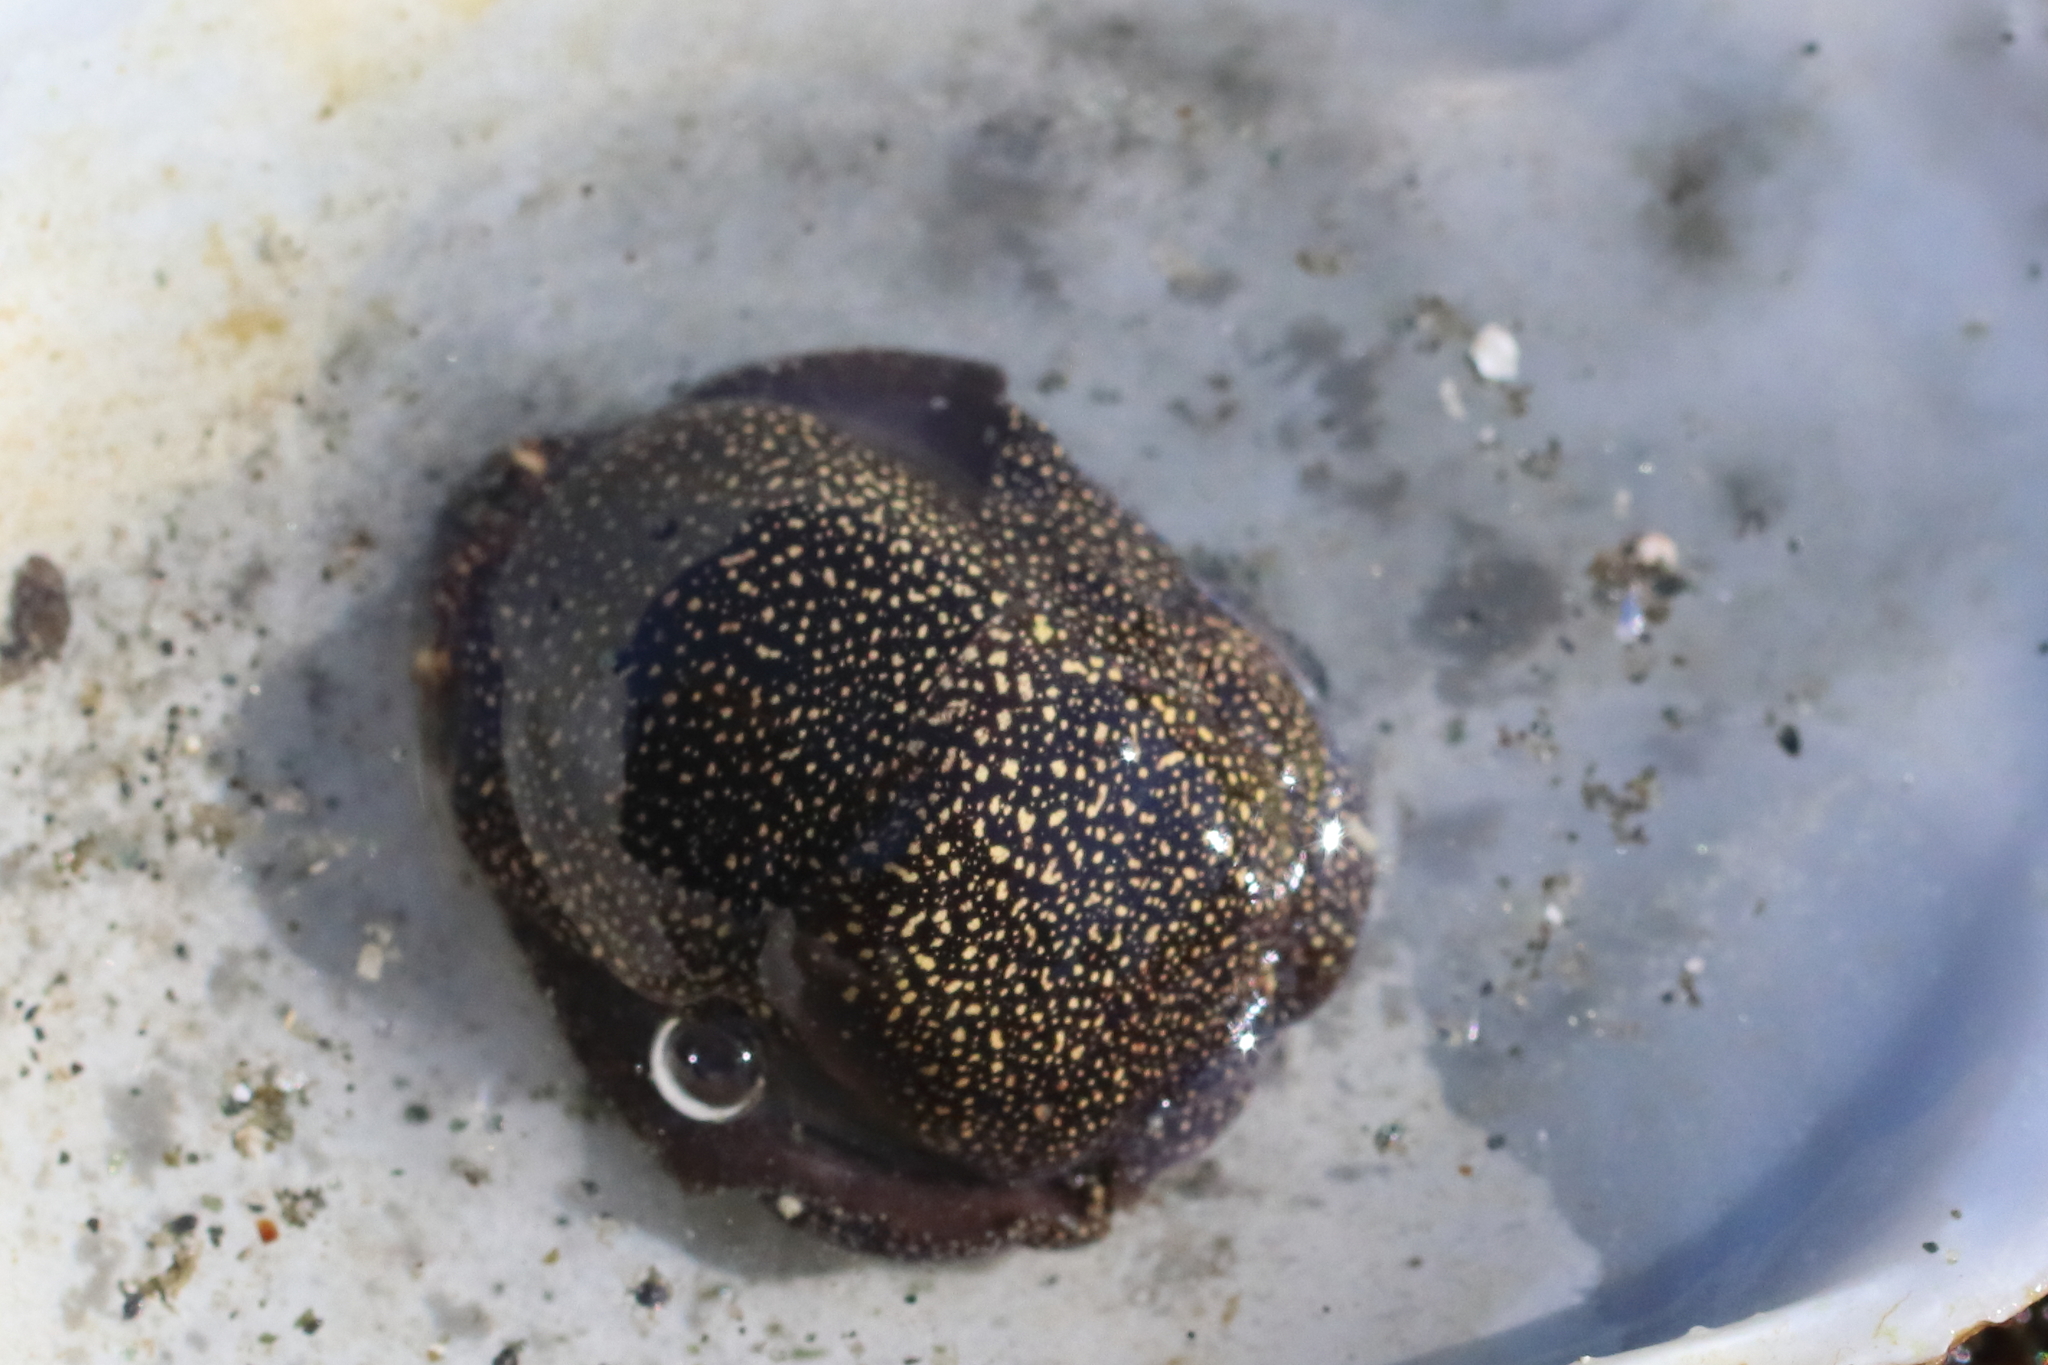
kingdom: Animalia
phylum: Mollusca
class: Gastropoda
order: Cephalaspidea
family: Aglajidae
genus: Aglaja
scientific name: Aglaja ocelligera
